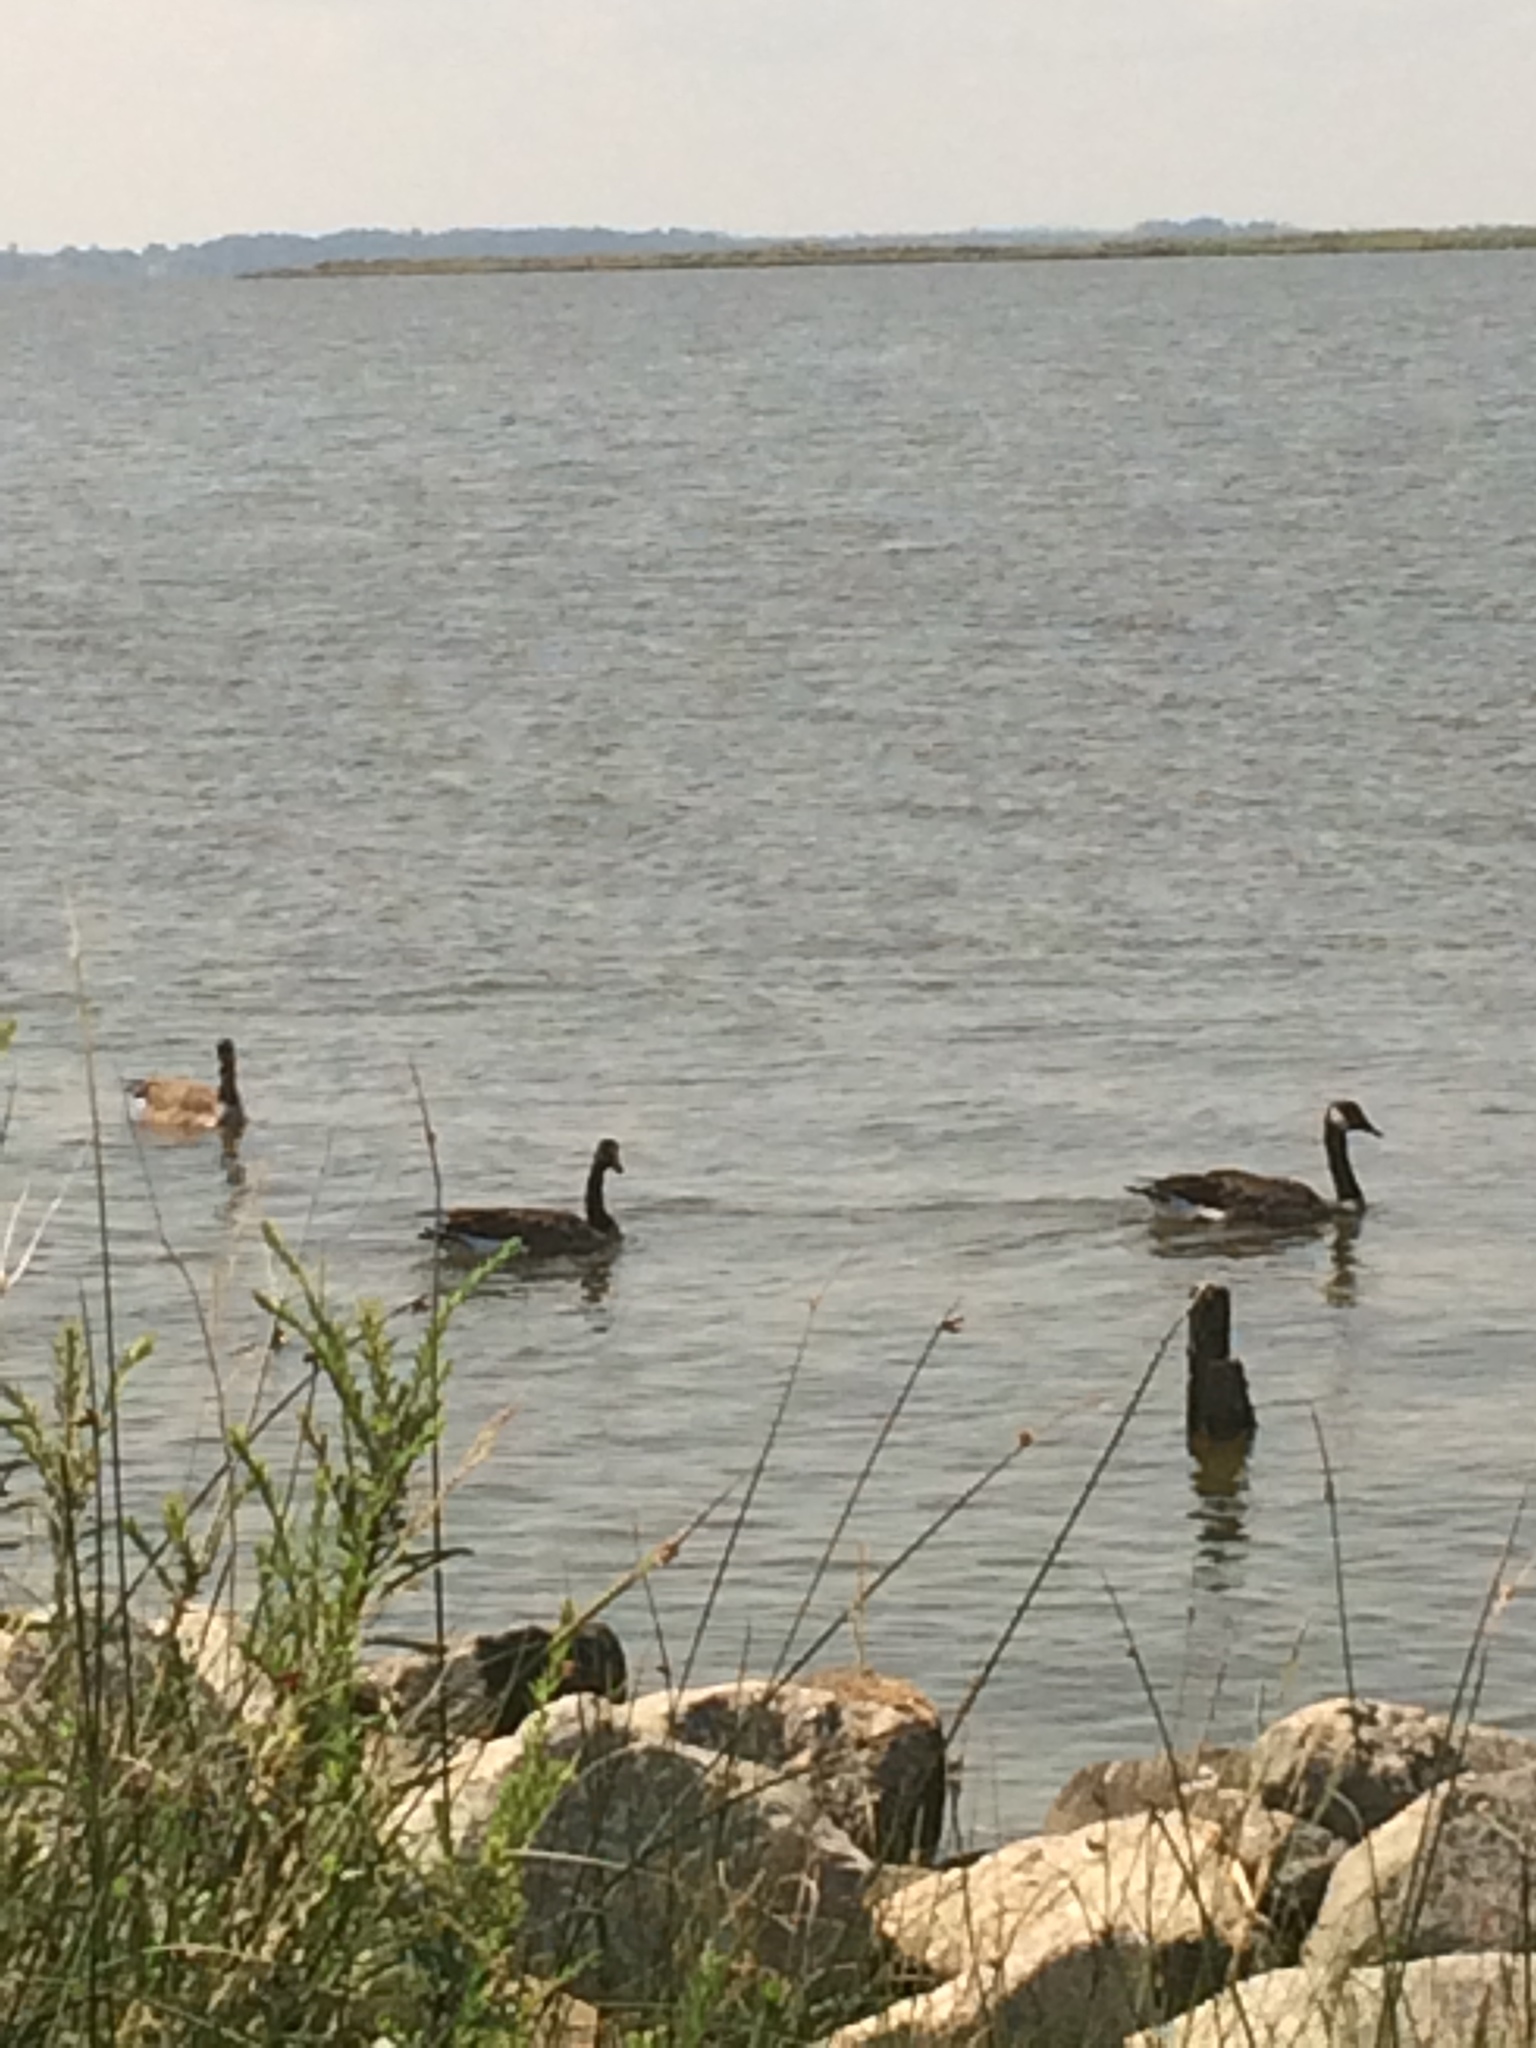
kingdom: Animalia
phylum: Chordata
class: Aves
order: Anseriformes
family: Anatidae
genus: Branta
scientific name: Branta canadensis
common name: Canada goose
